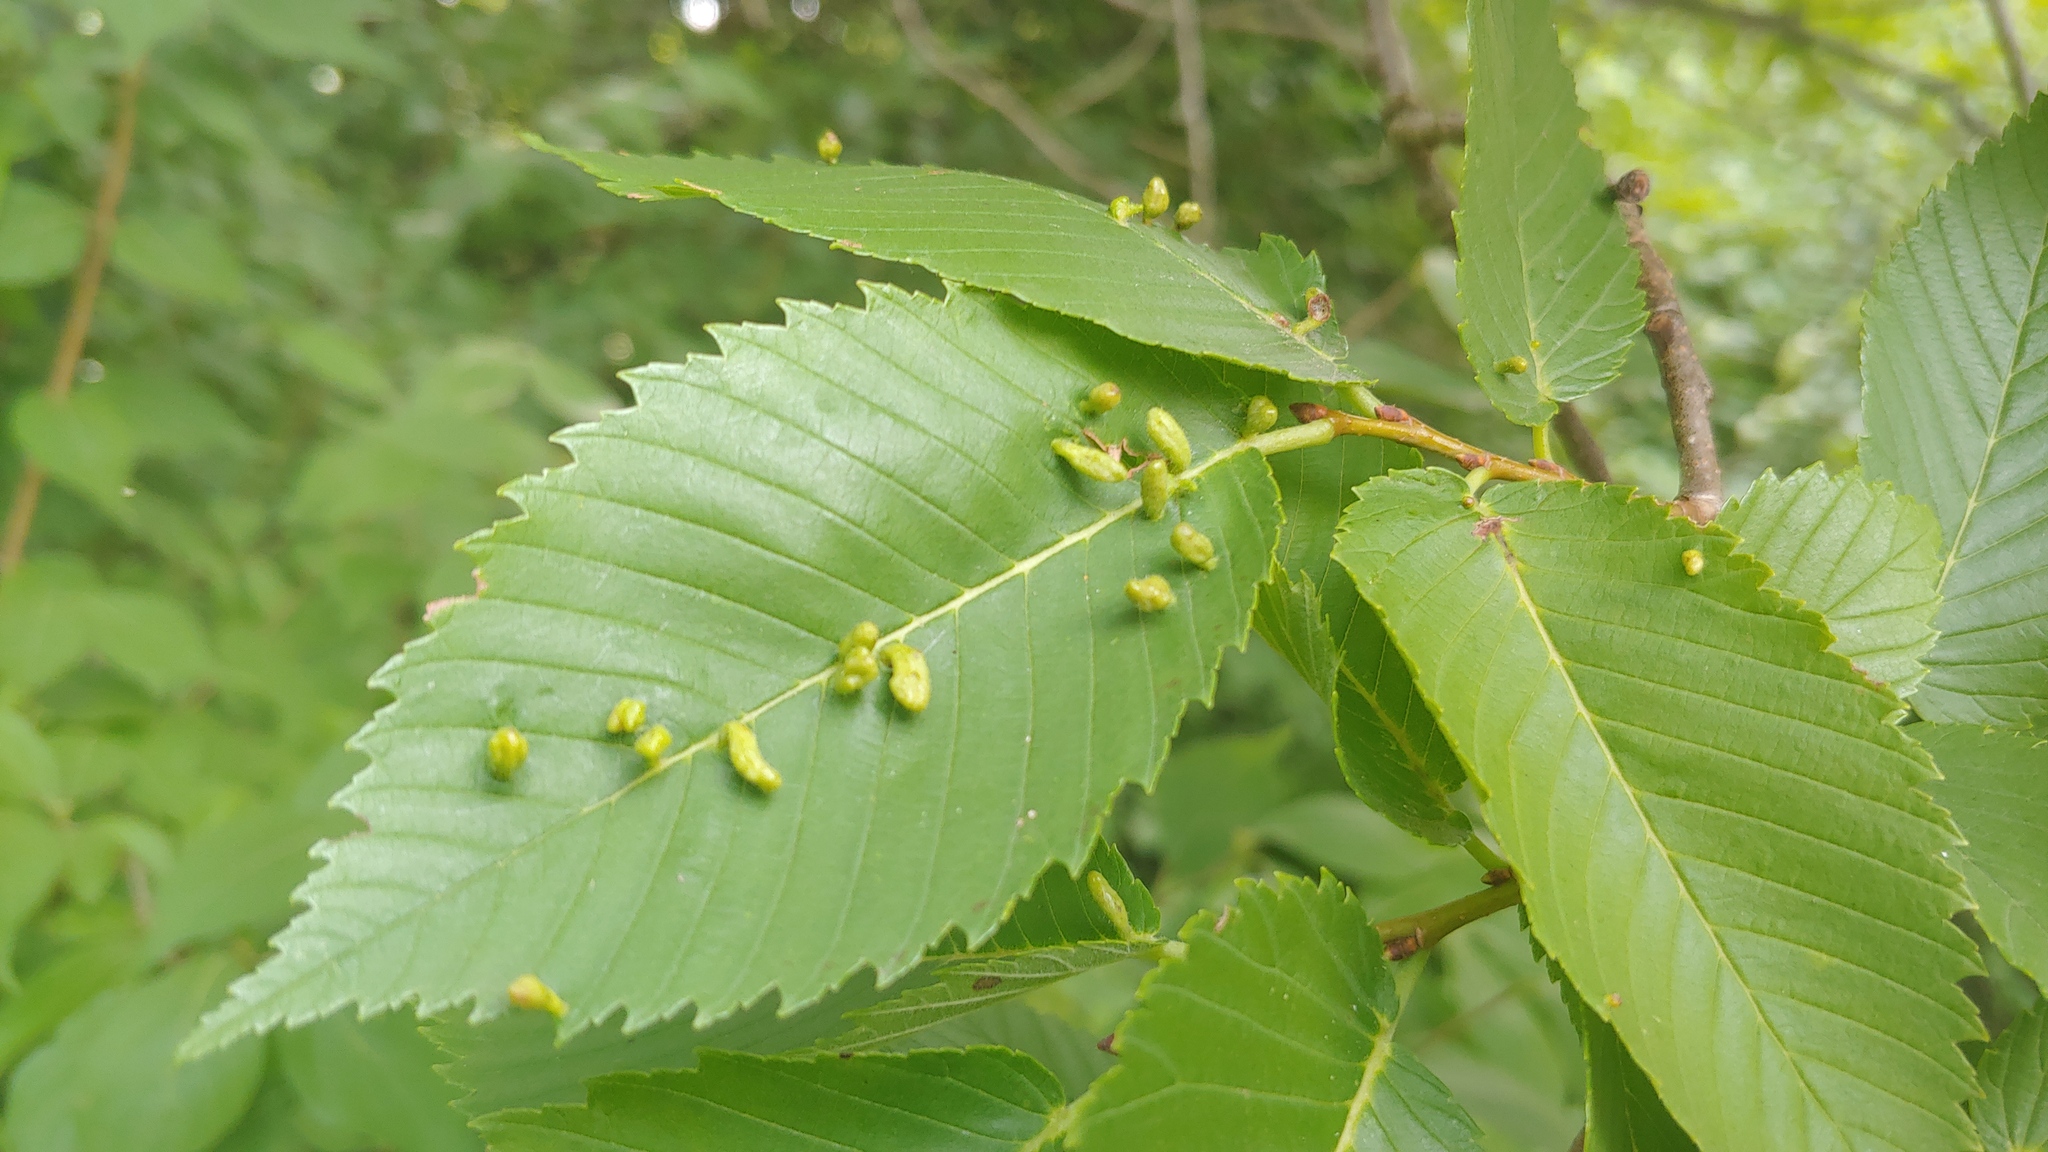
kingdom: Animalia
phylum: Arthropoda
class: Arachnida
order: Trombidiformes
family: Eriophyidae
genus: Aceria
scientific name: Aceria
